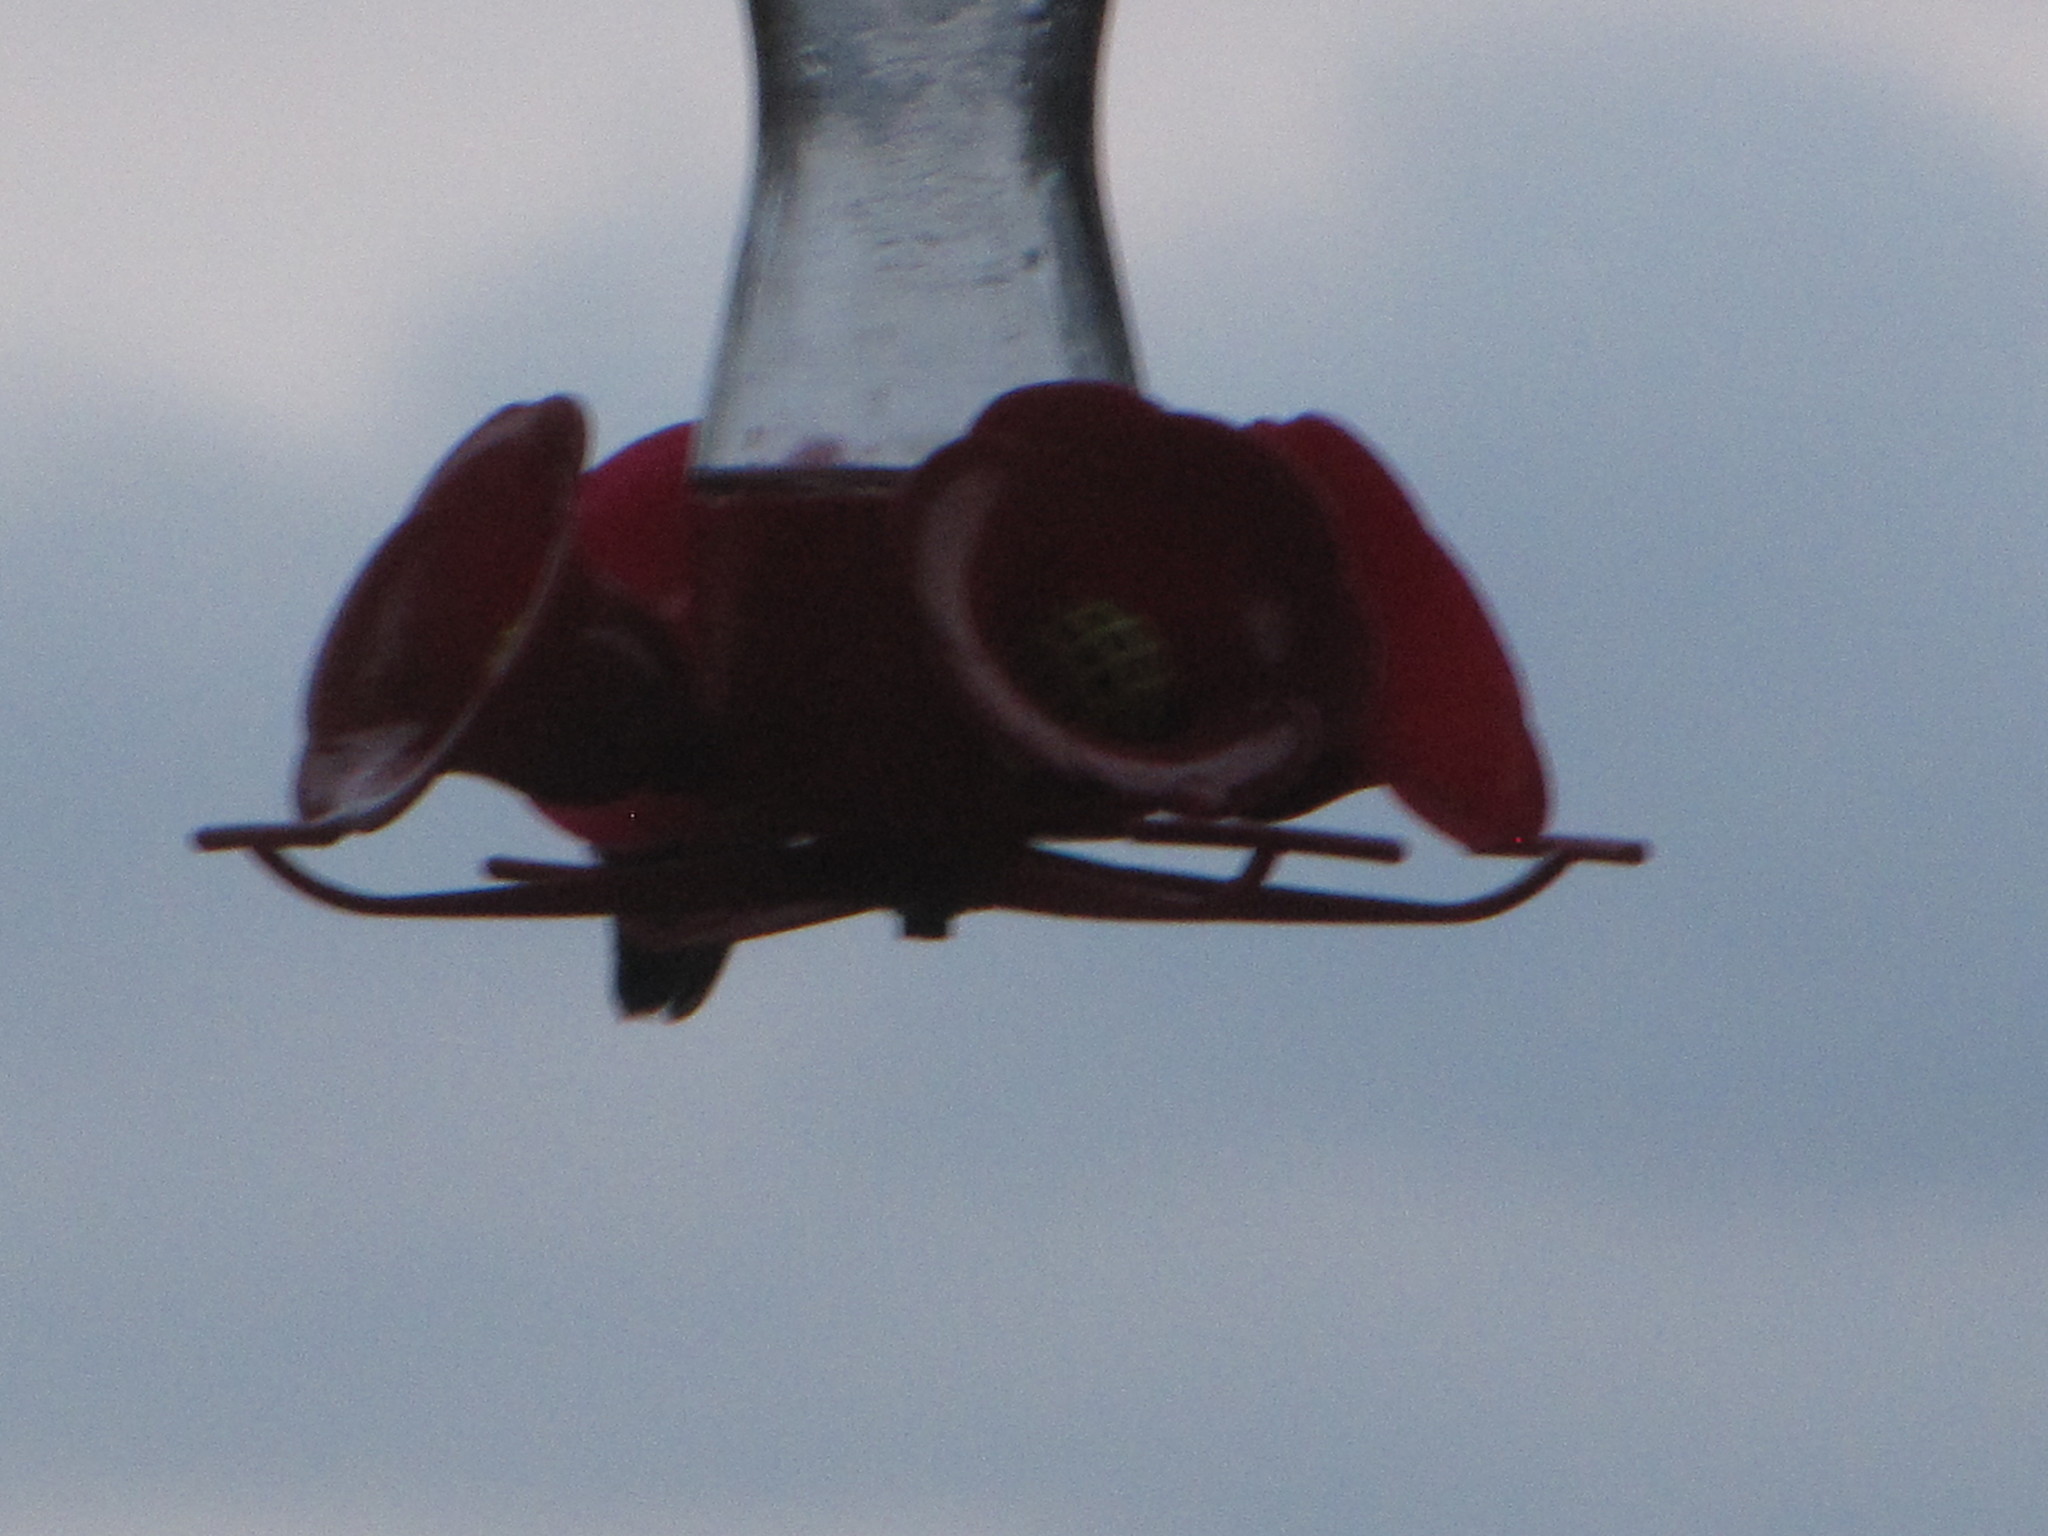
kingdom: Animalia
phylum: Chordata
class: Aves
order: Apodiformes
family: Trochilidae
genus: Calypte
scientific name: Calypte anna
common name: Anna's hummingbird
